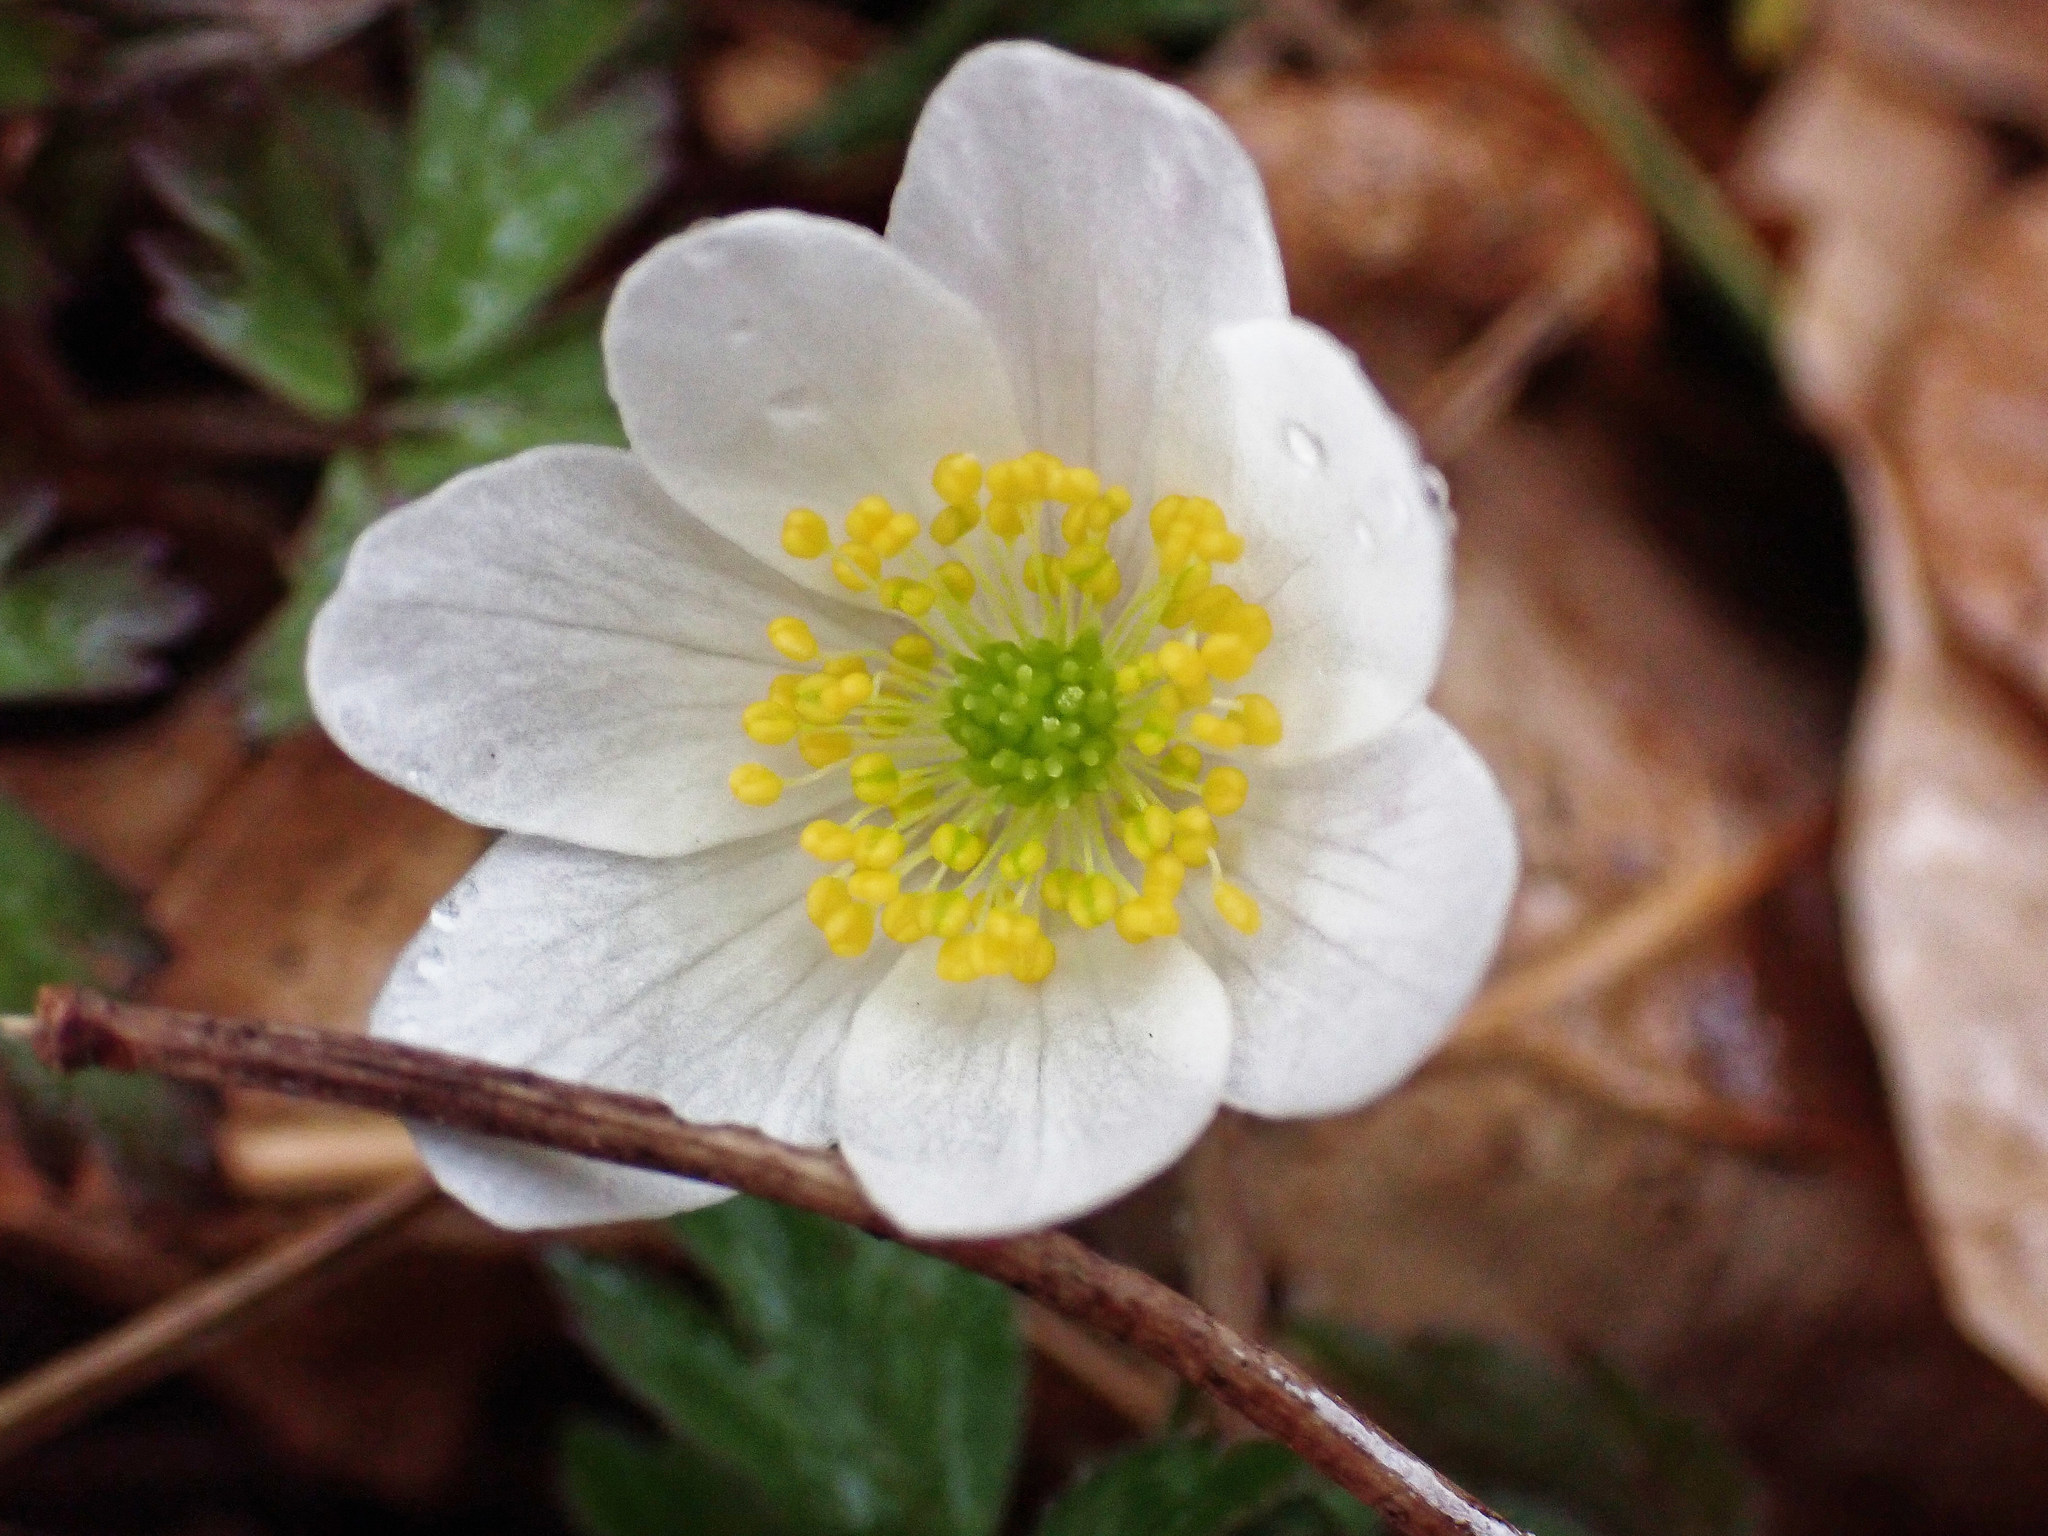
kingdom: Plantae
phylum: Tracheophyta
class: Magnoliopsida
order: Ranunculales
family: Ranunculaceae
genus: Anemone
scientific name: Anemone nemorosa
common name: Wood anemone
